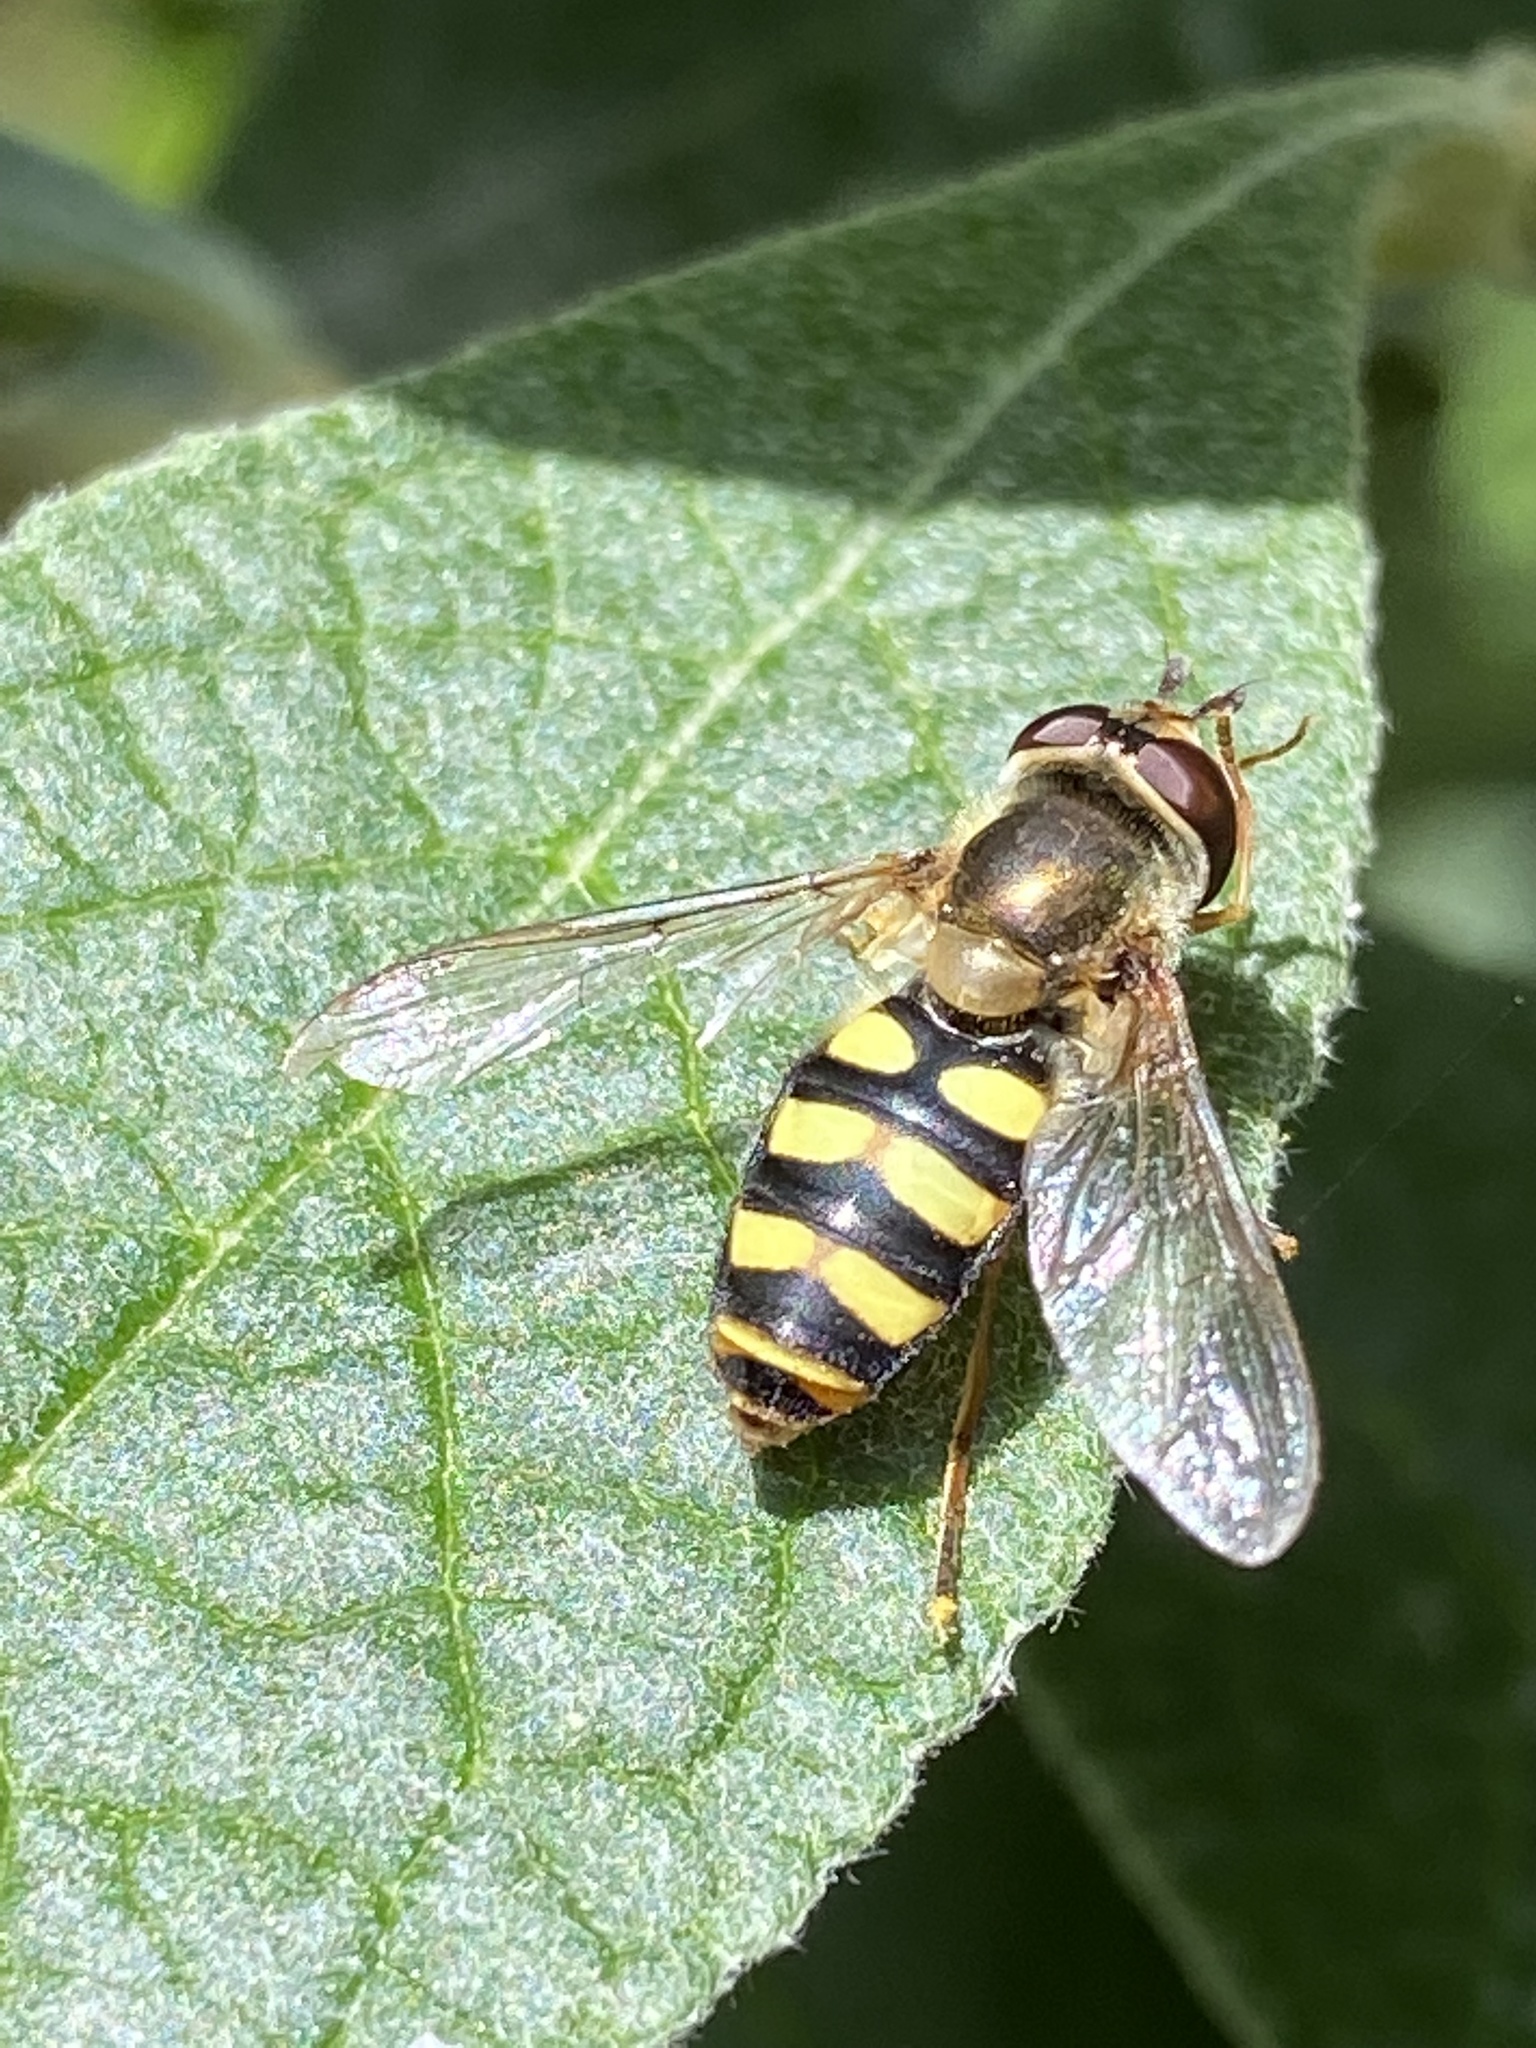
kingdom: Animalia
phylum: Arthropoda
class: Insecta
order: Diptera
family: Syrphidae
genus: Eupeodes
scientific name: Eupeodes fumipennis
